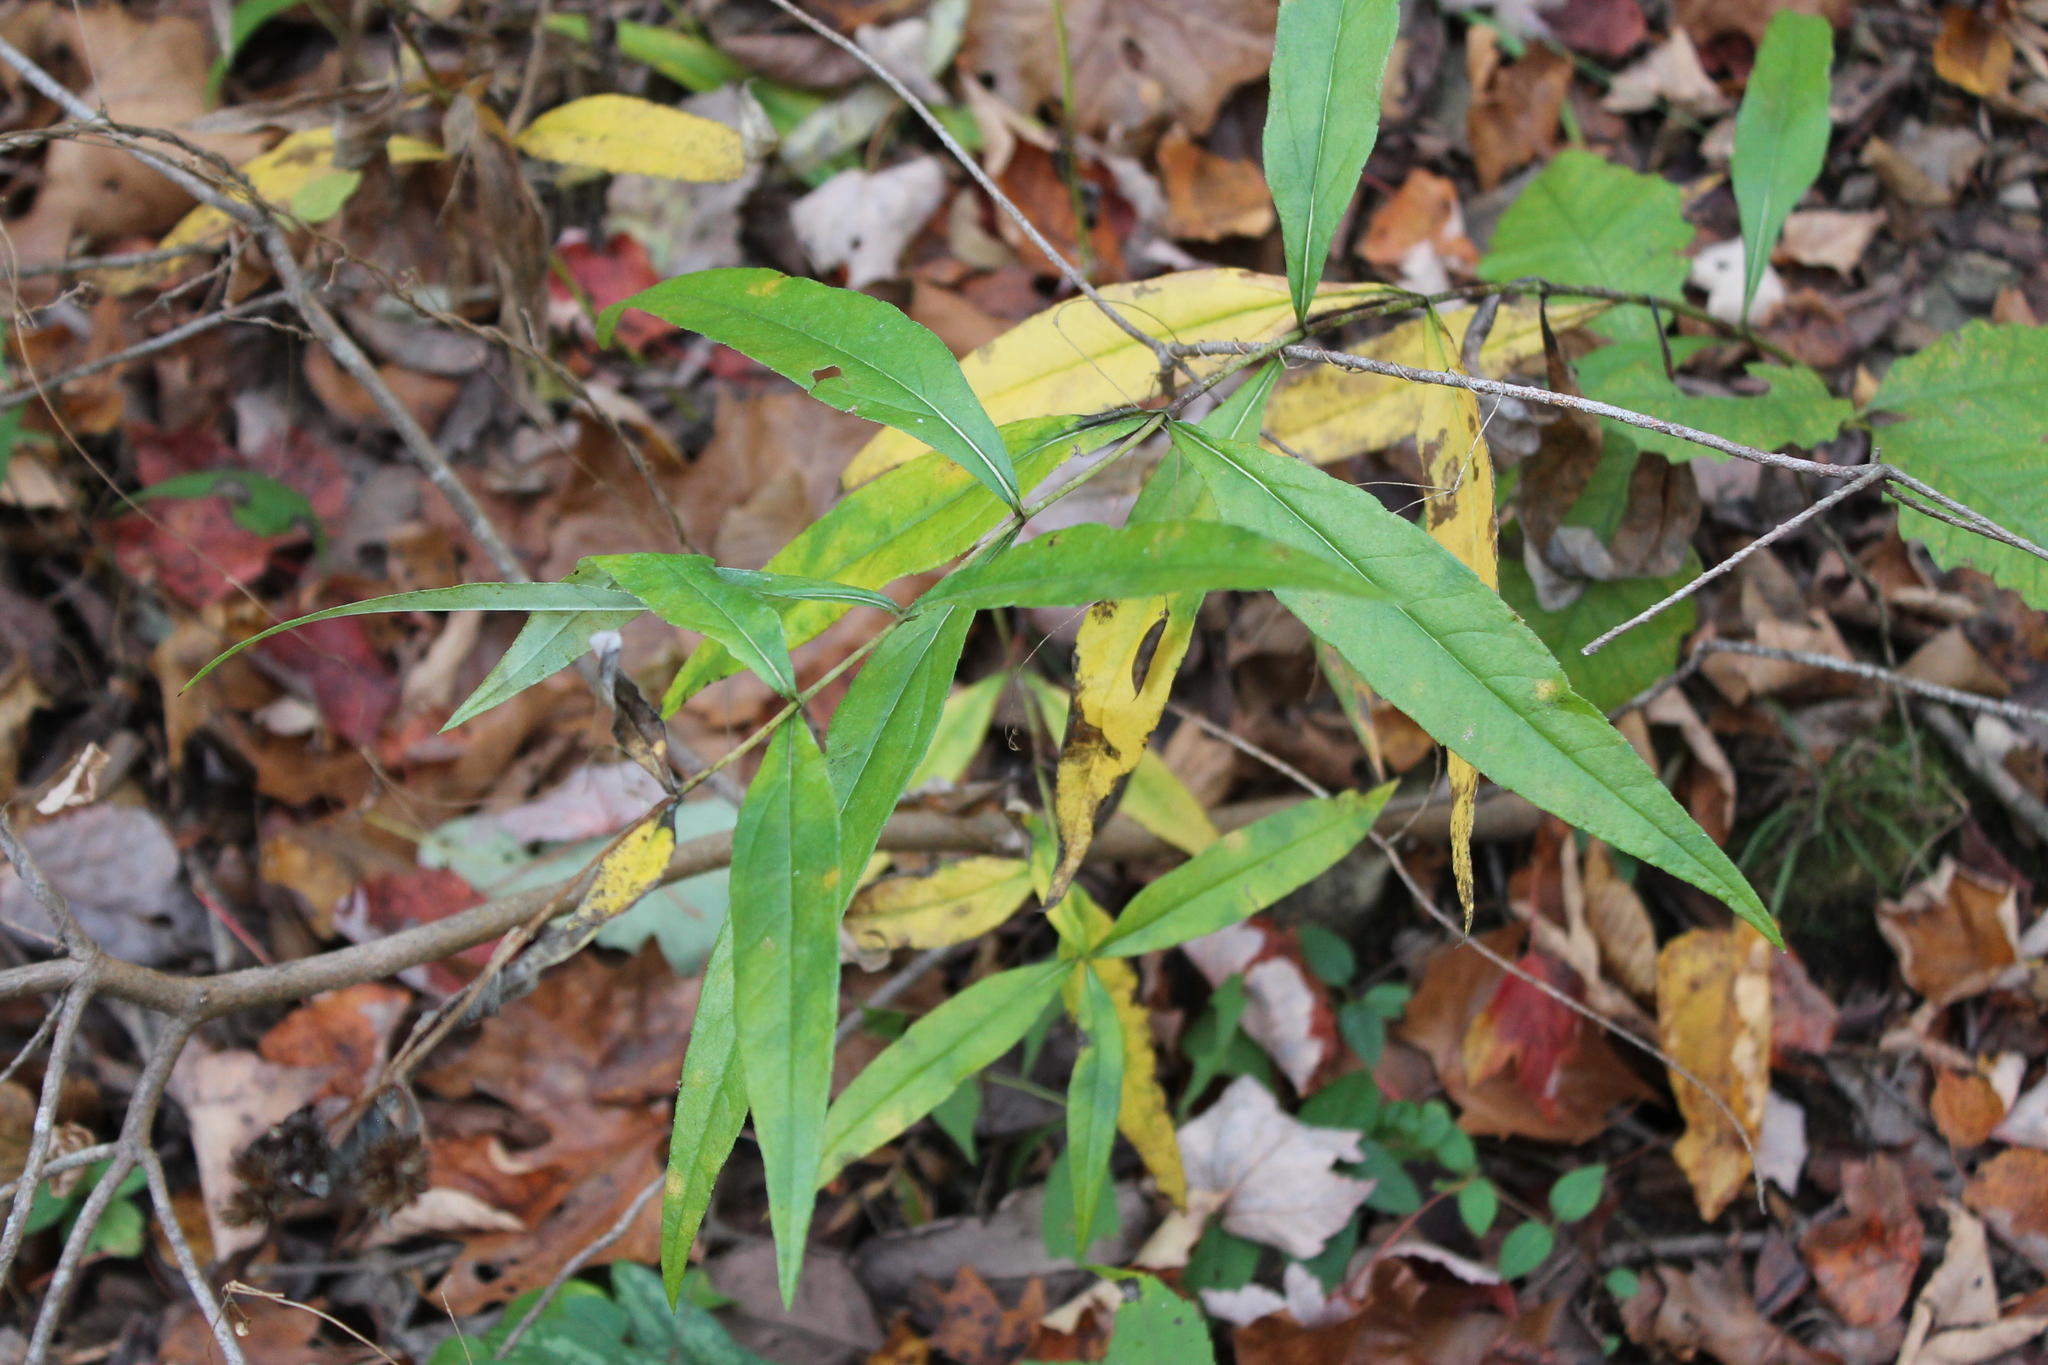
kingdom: Plantae
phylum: Tracheophyta
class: Magnoliopsida
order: Asterales
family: Asteraceae
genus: Helianthus
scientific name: Helianthus eggertii
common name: Eggert's sunflower
